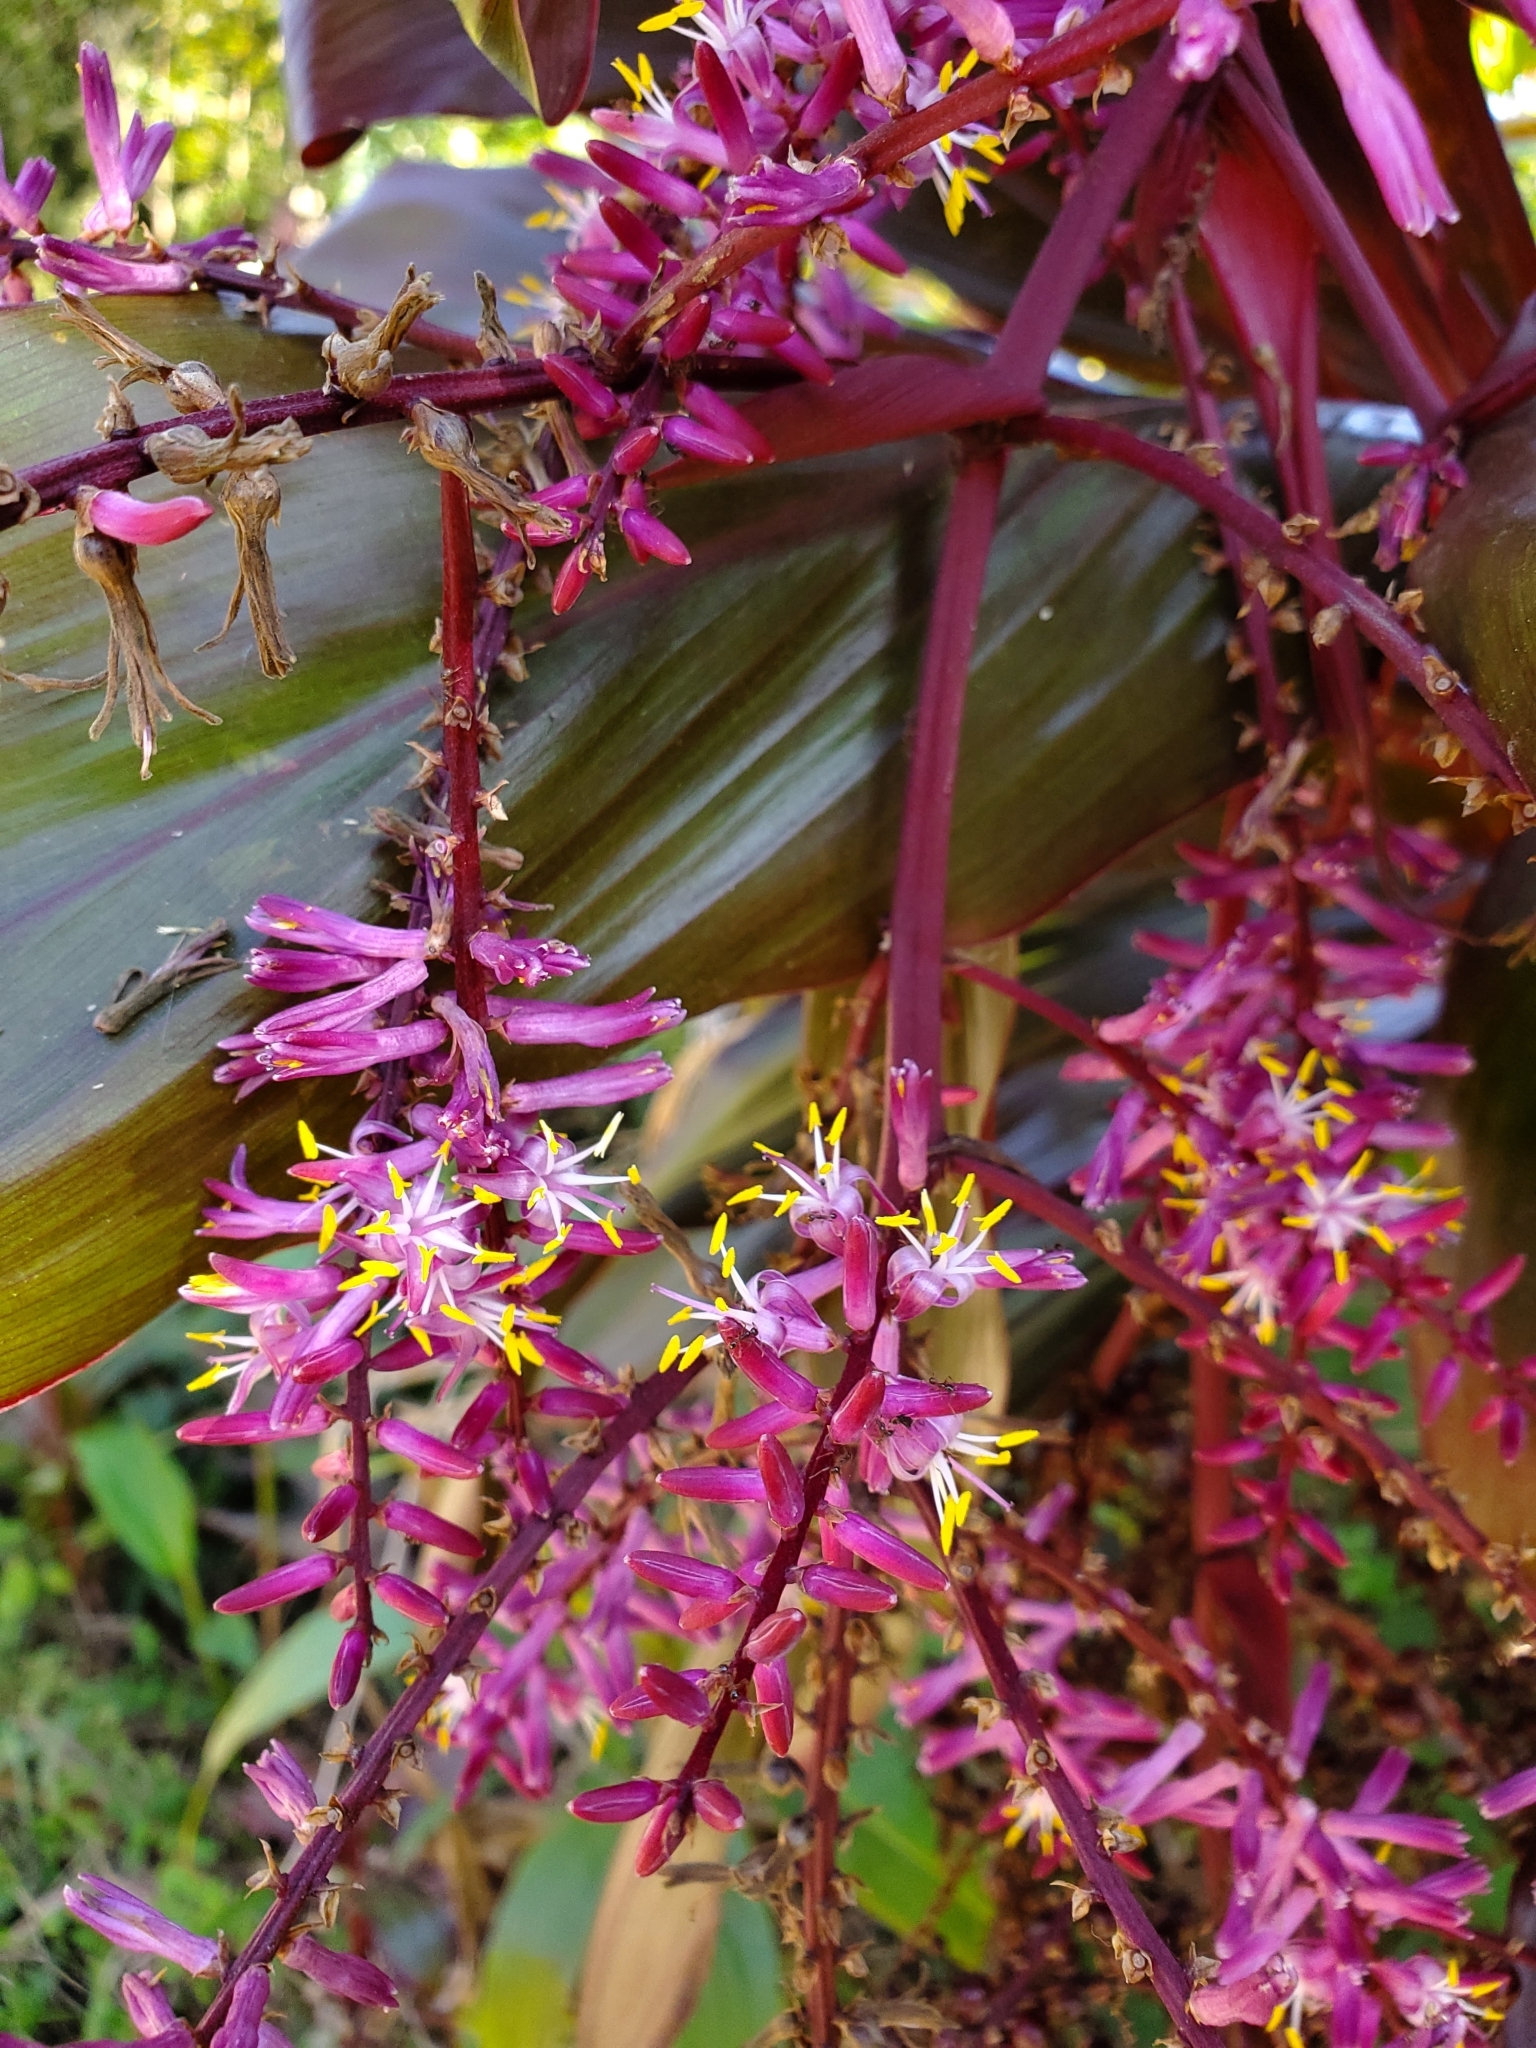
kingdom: Plantae
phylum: Tracheophyta
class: Liliopsida
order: Asparagales
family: Asparagaceae
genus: Cordyline
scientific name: Cordyline fruticosa
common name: Good-luck-plant
